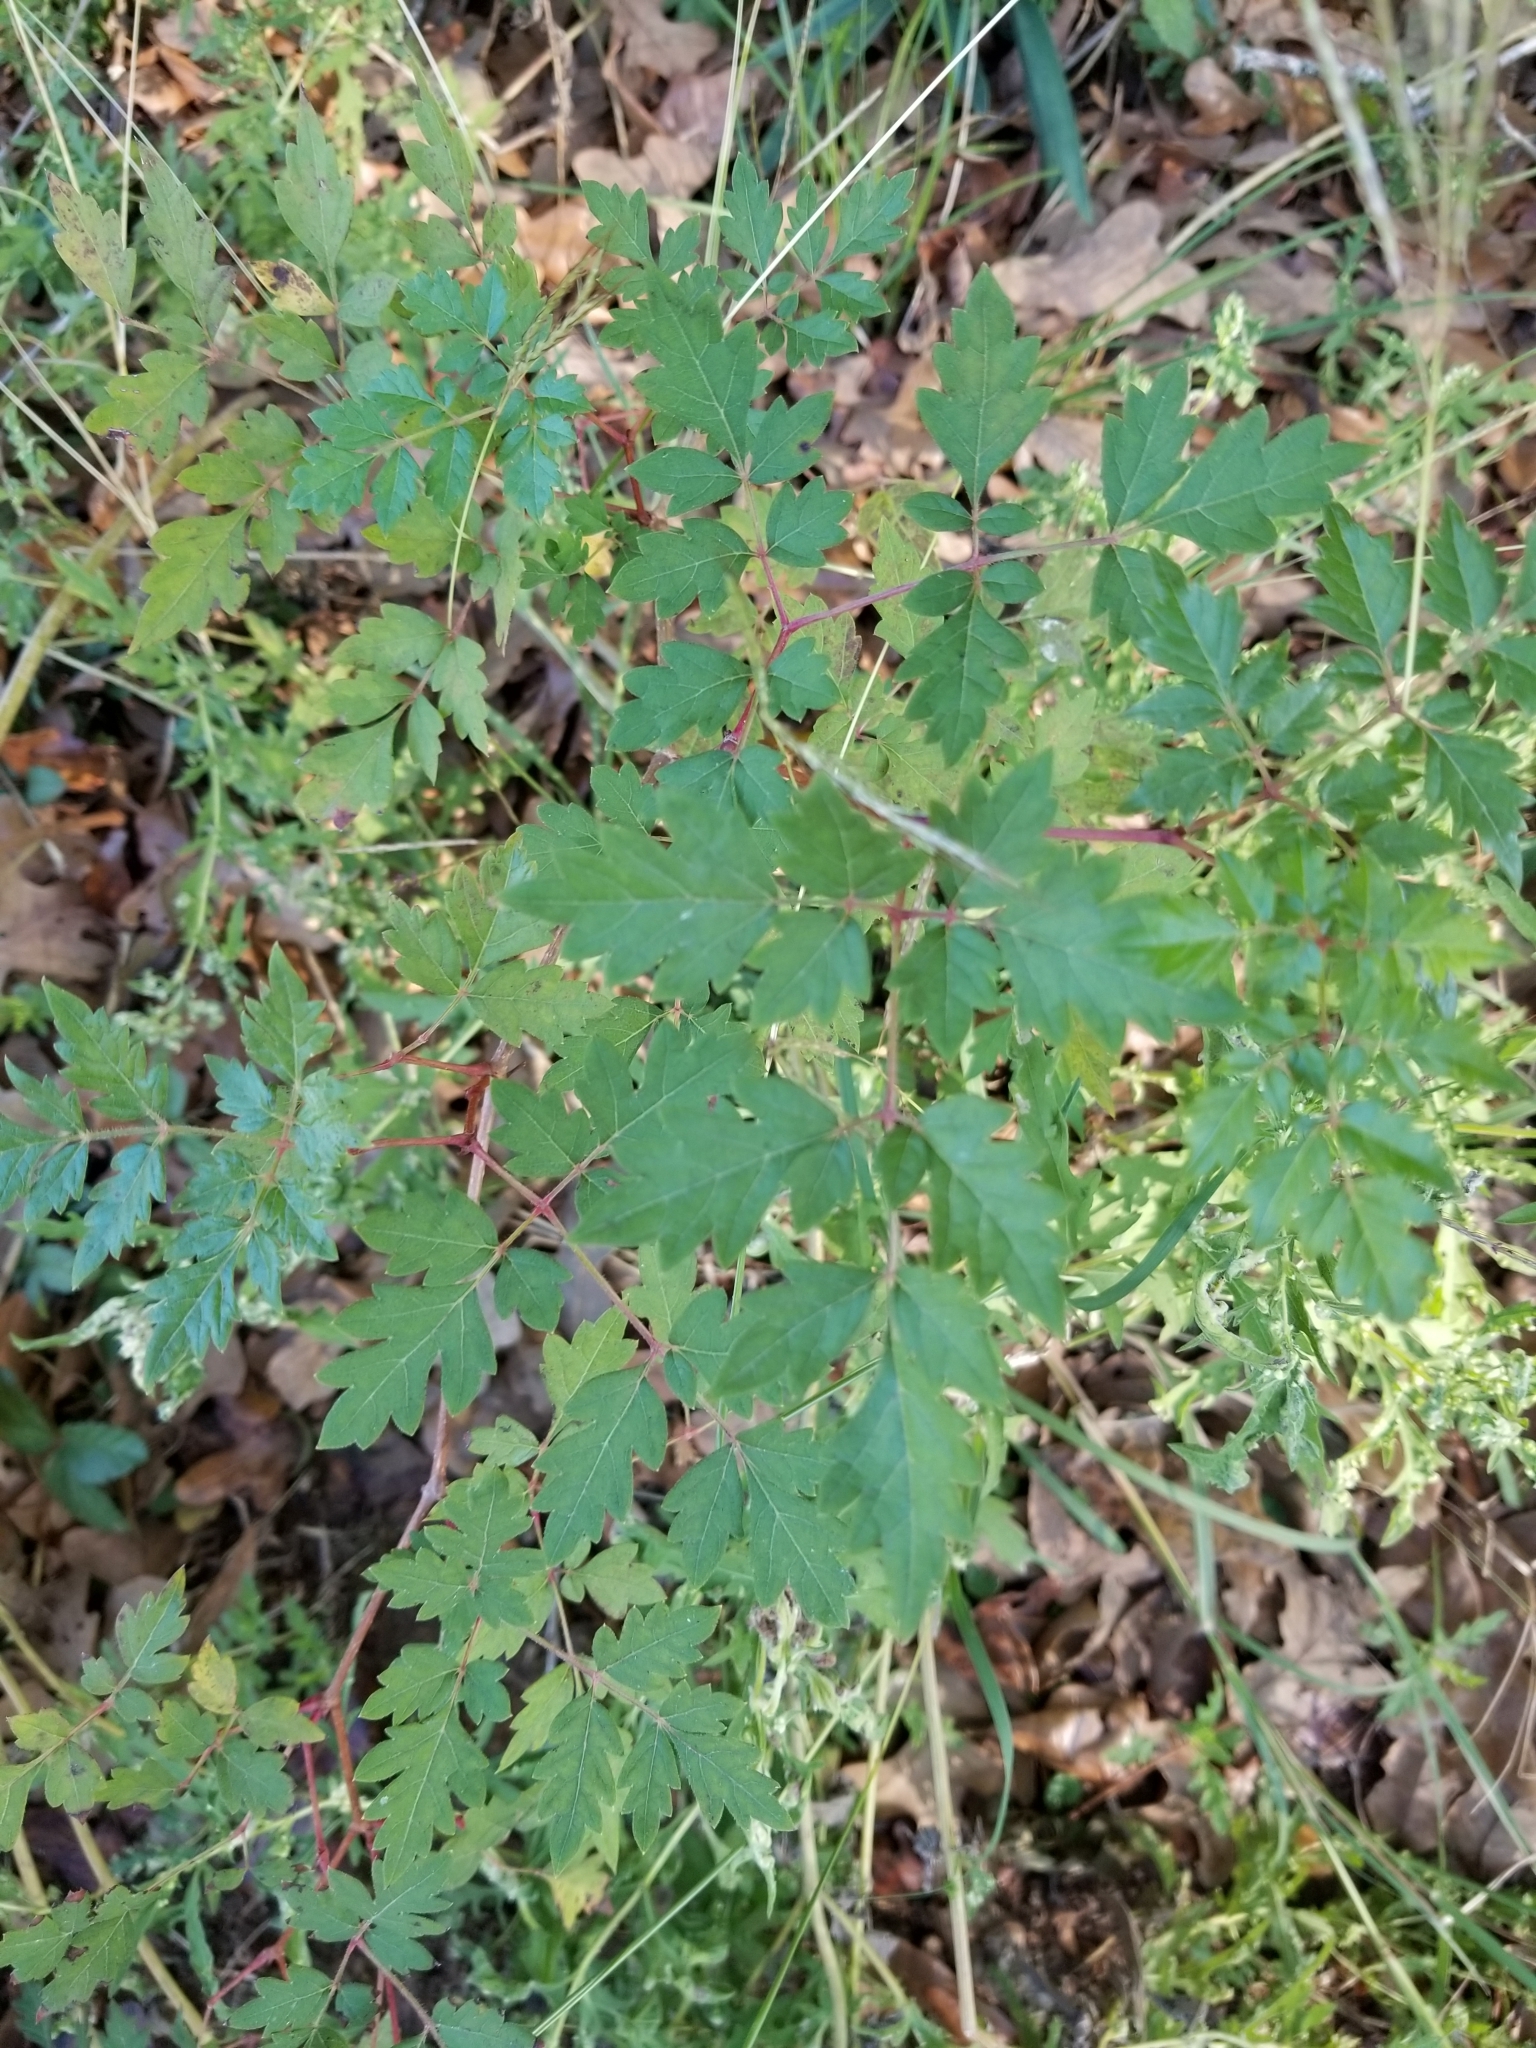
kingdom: Plantae
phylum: Tracheophyta
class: Magnoliopsida
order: Vitales
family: Vitaceae
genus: Nekemias
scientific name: Nekemias arborea
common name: Peppervine
